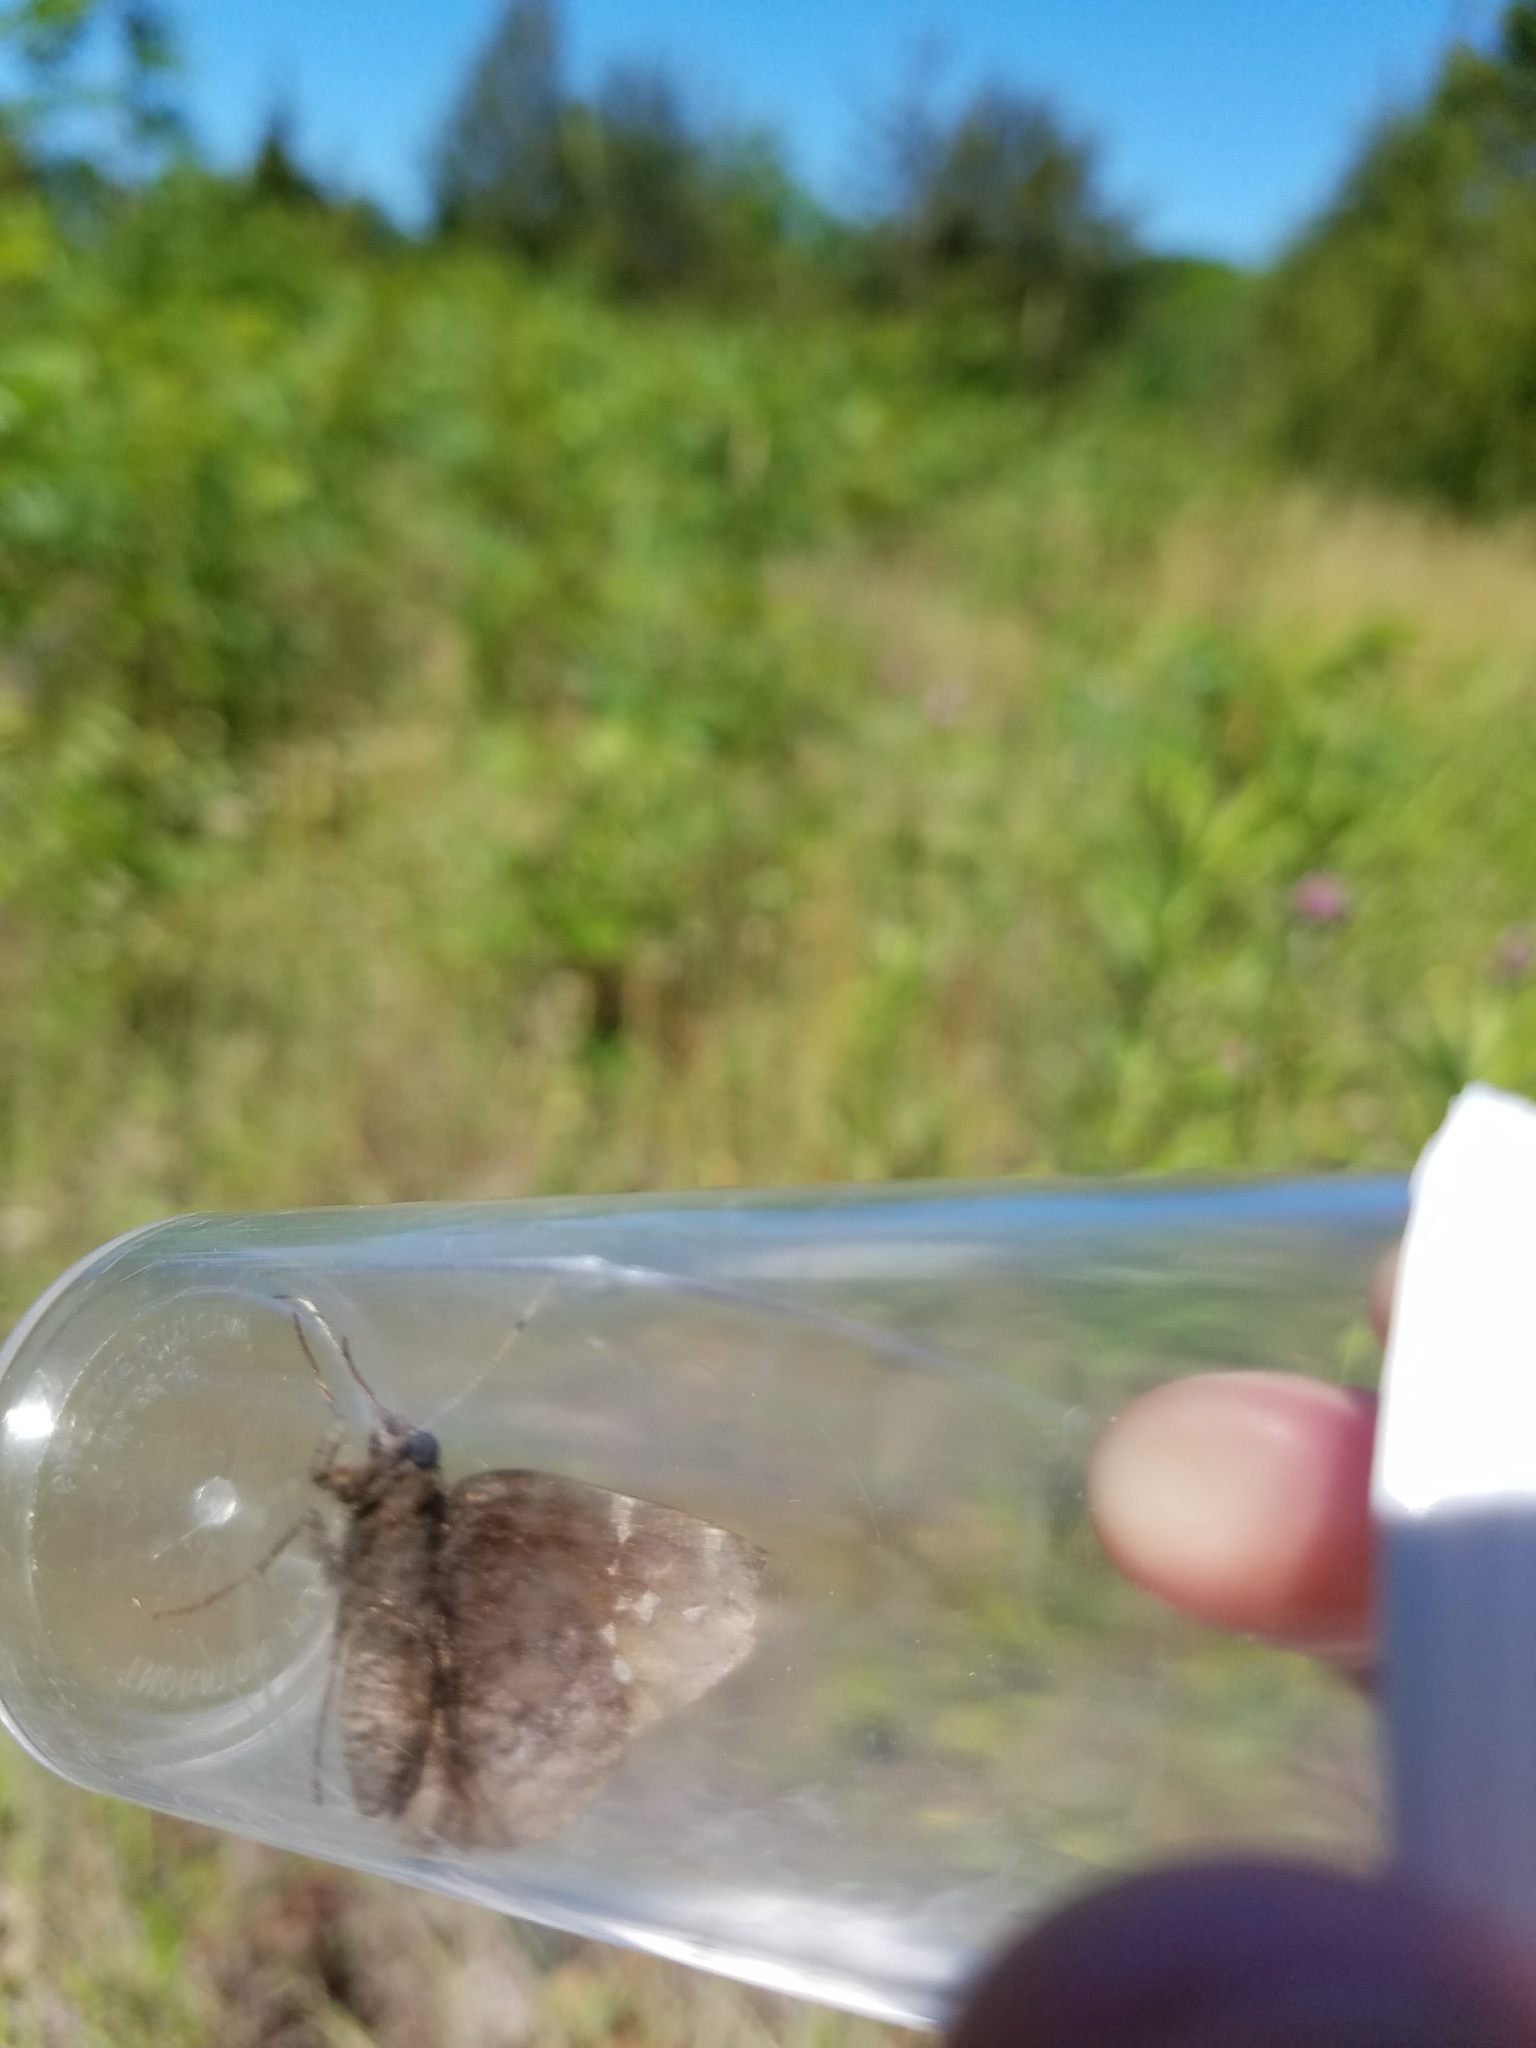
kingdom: Animalia
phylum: Arthropoda
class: Insecta
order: Lepidoptera
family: Hesperiidae
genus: Thorybes
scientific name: Thorybes pylades
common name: Northern cloudywing
